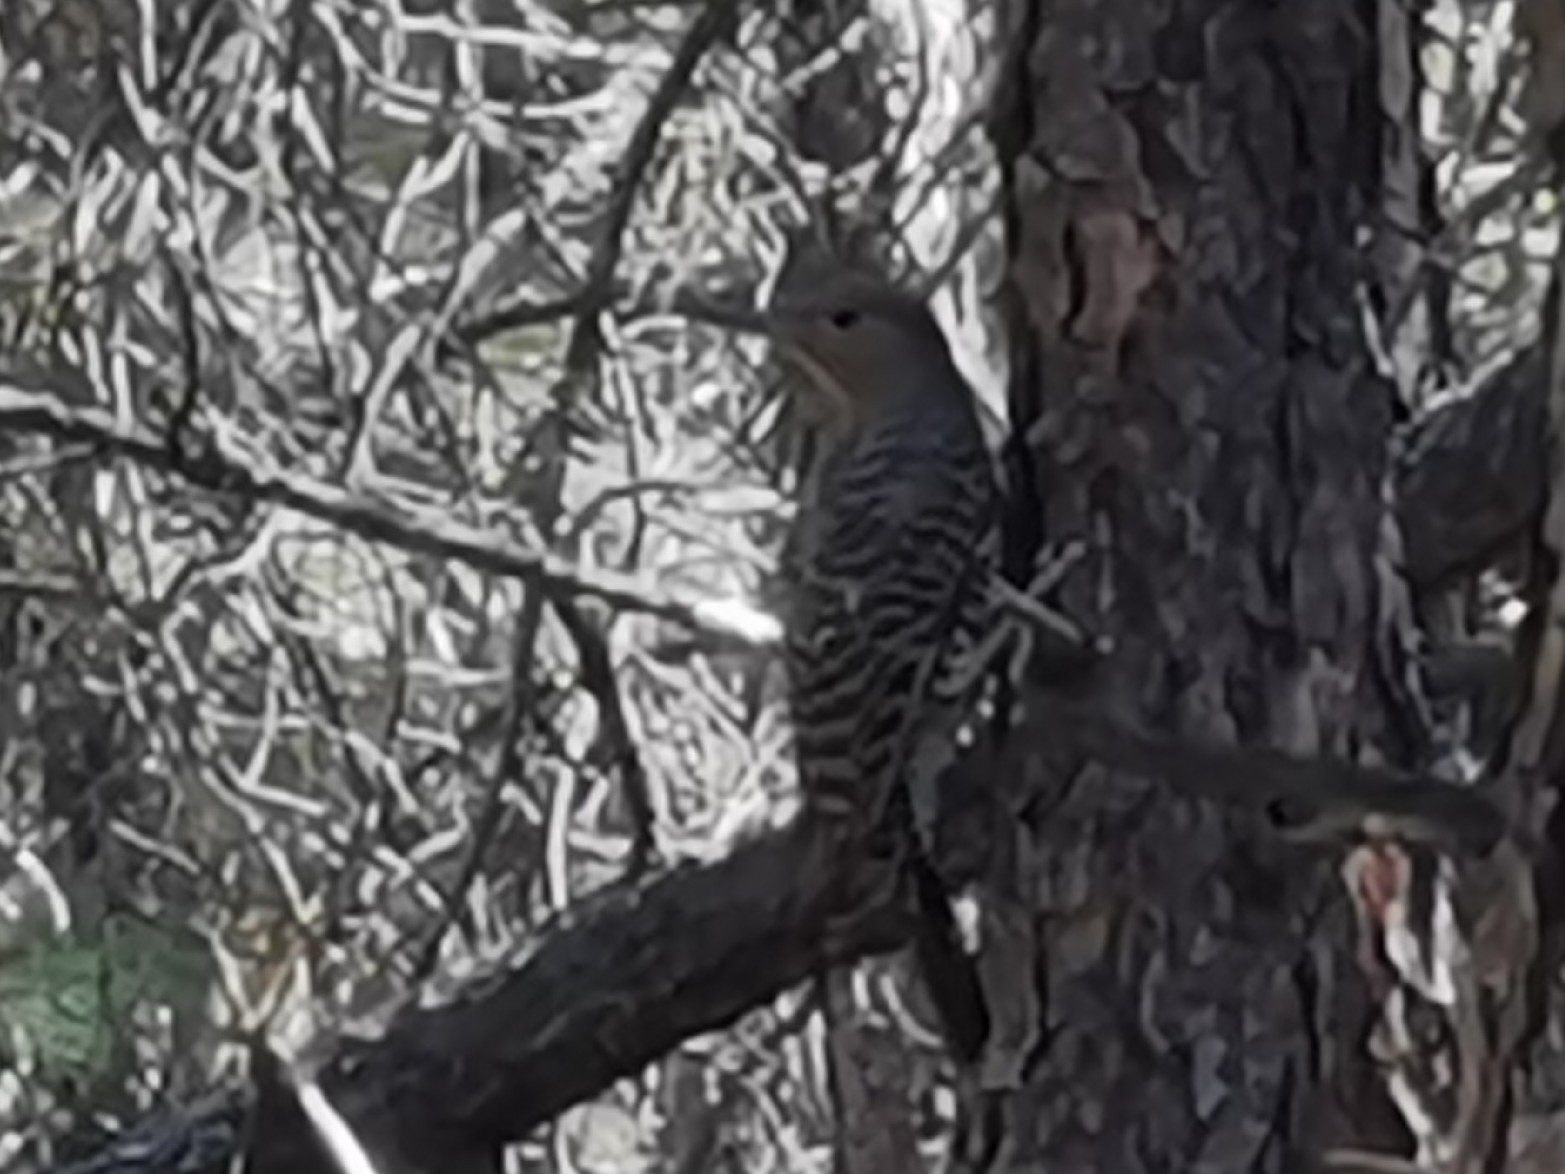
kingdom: Animalia
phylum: Chordata
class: Aves
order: Piciformes
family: Picidae
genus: Colaptes
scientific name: Colaptes auratus
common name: Northern flicker
